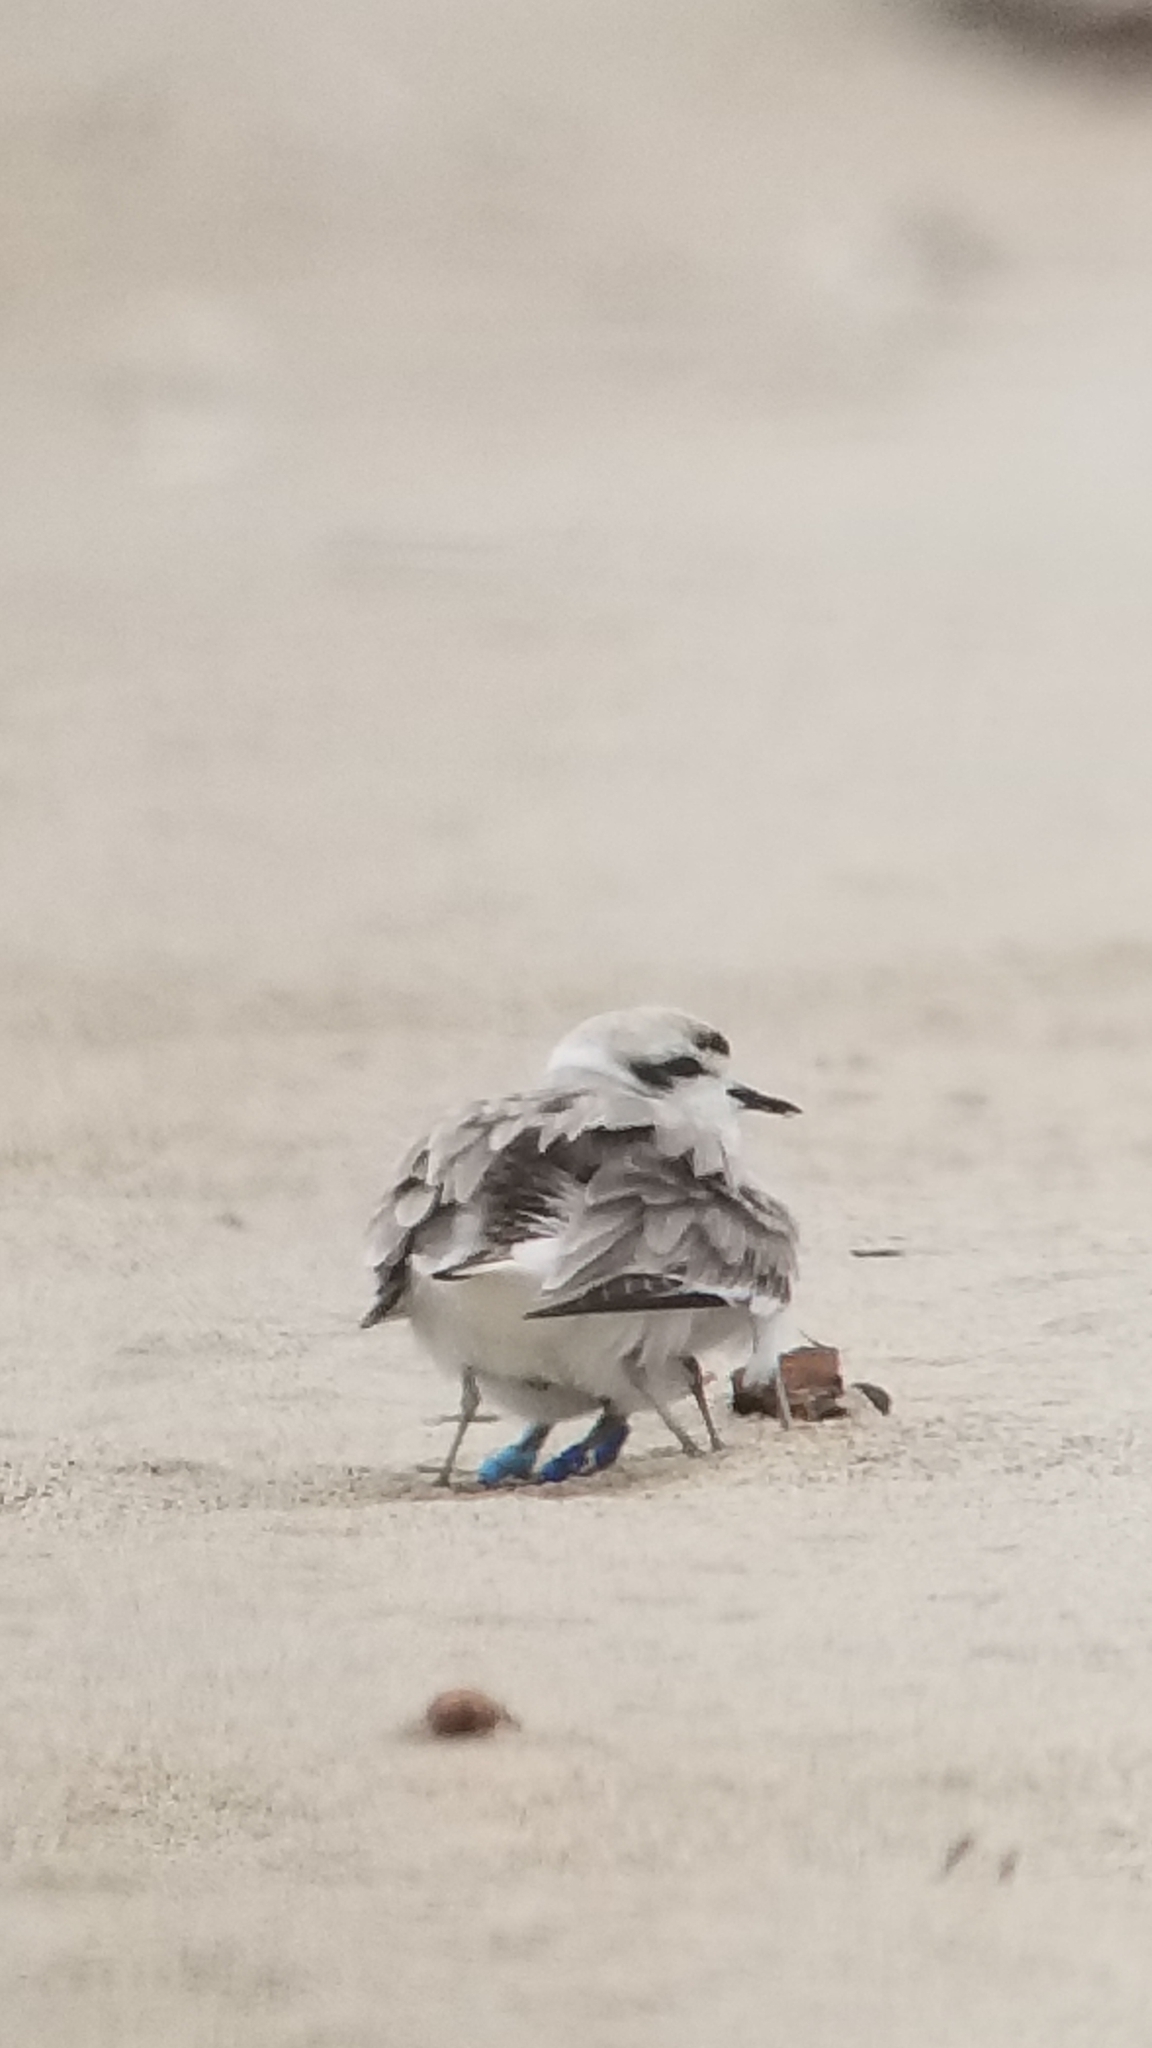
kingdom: Animalia
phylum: Chordata
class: Aves
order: Charadriiformes
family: Charadriidae
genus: Anarhynchus
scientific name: Anarhynchus
